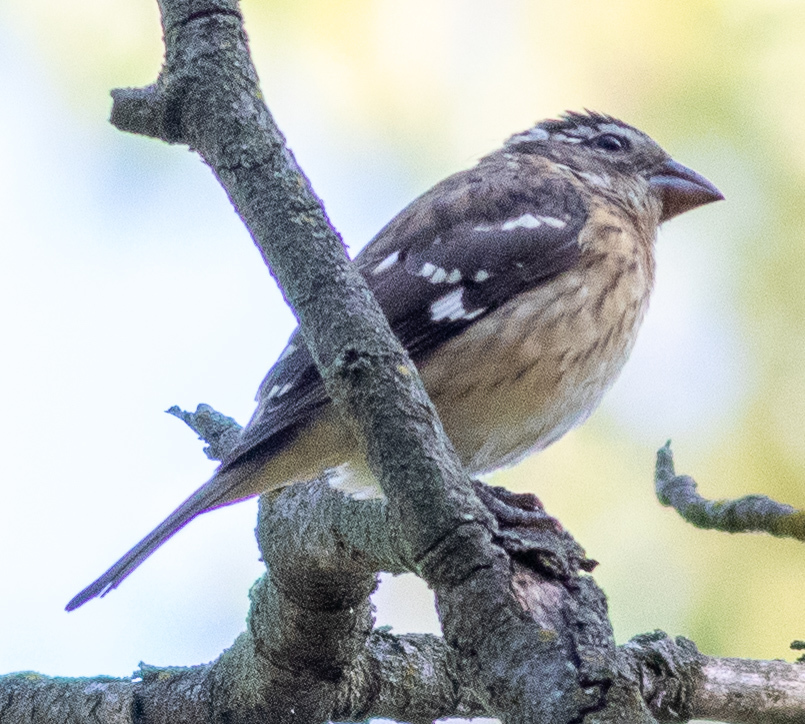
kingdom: Animalia
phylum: Chordata
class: Aves
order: Passeriformes
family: Cardinalidae
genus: Pheucticus
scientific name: Pheucticus ludovicianus
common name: Rose-breasted grosbeak
